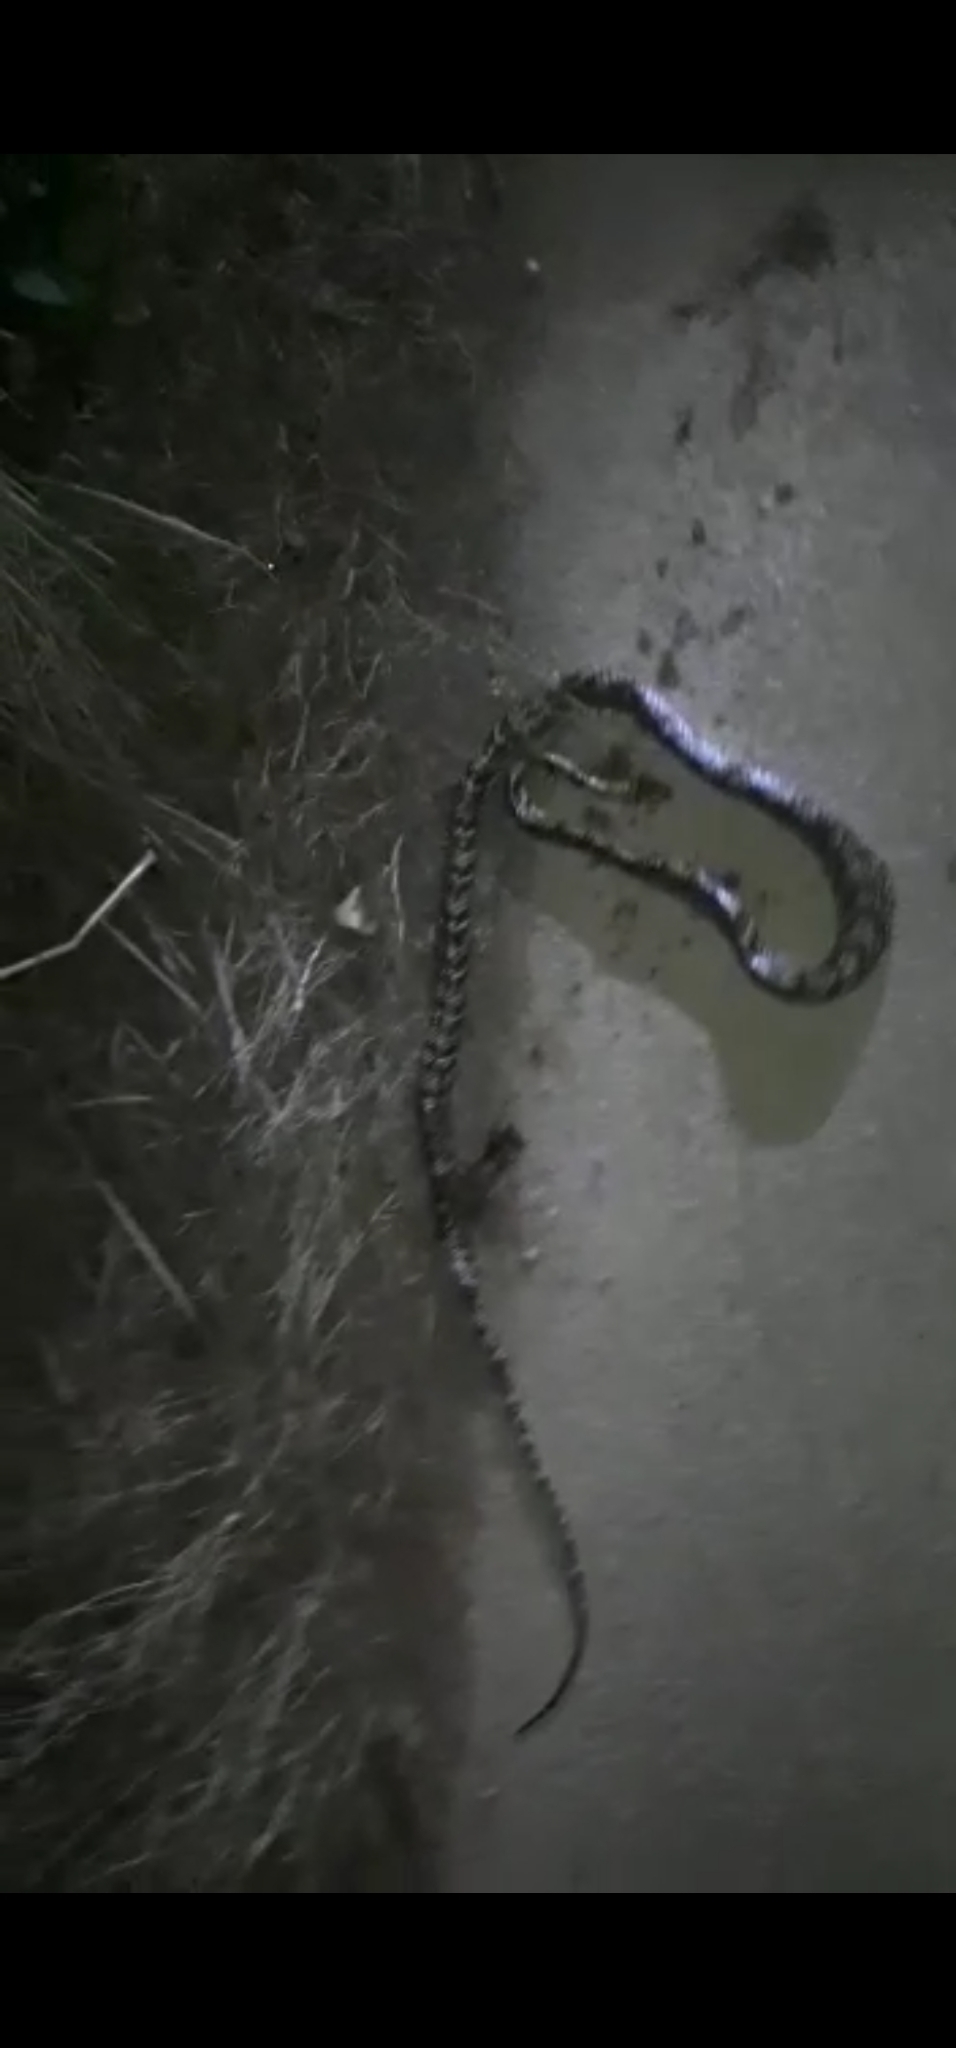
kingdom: Animalia
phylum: Chordata
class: Squamata
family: Colubridae
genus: Spilotes
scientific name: Spilotes pullatus
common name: Chicken snake
